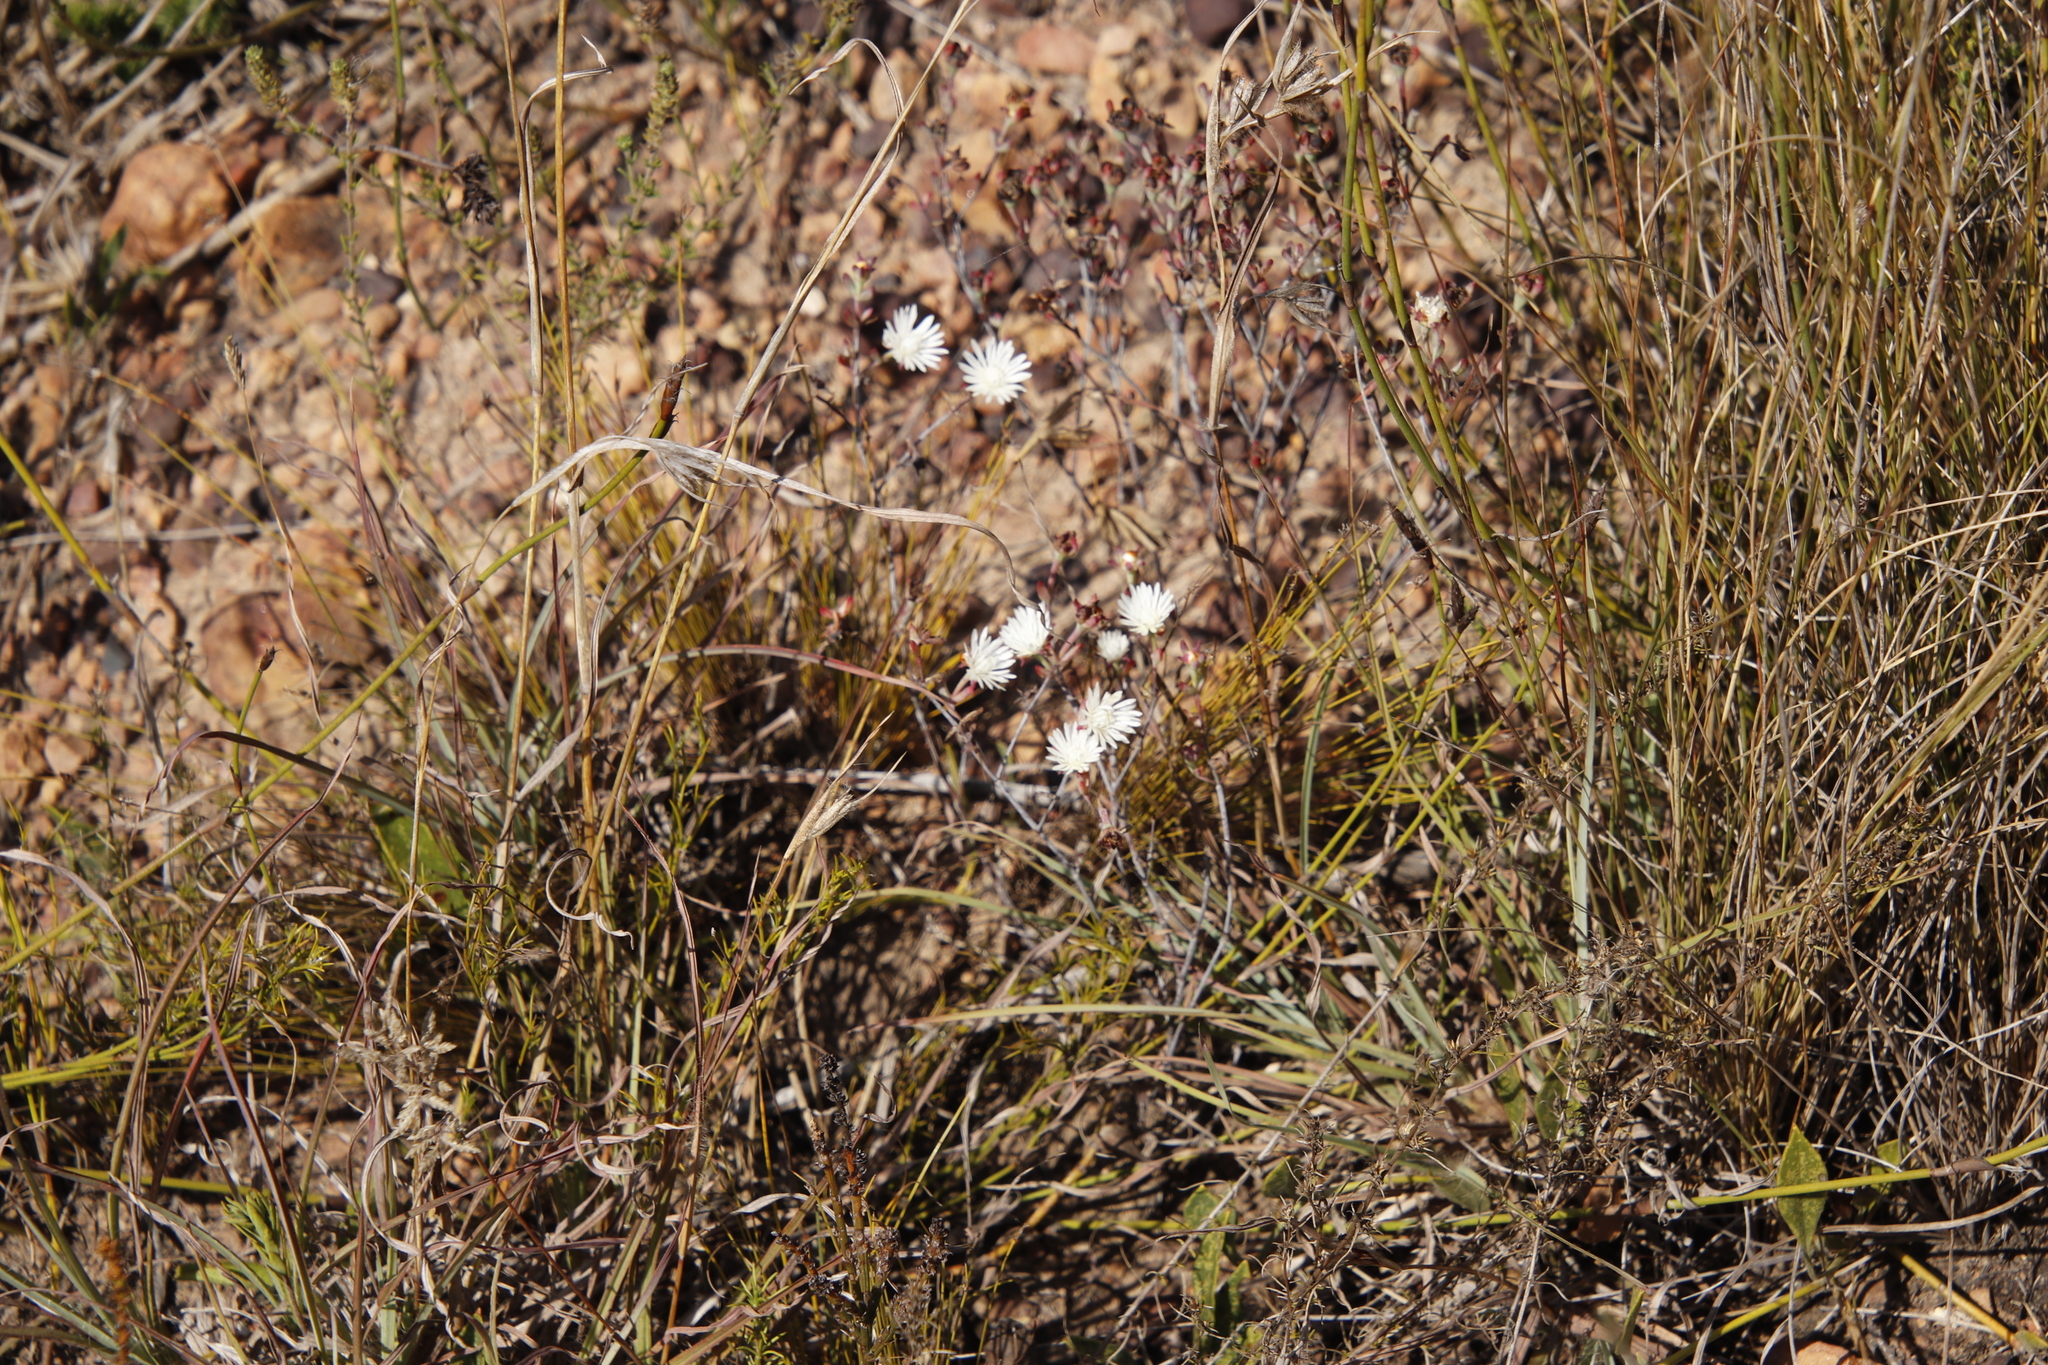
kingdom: Plantae
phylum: Tracheophyta
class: Magnoliopsida
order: Caryophyllales
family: Aizoaceae
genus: Lampranthus
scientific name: Lampranthus falcatus
